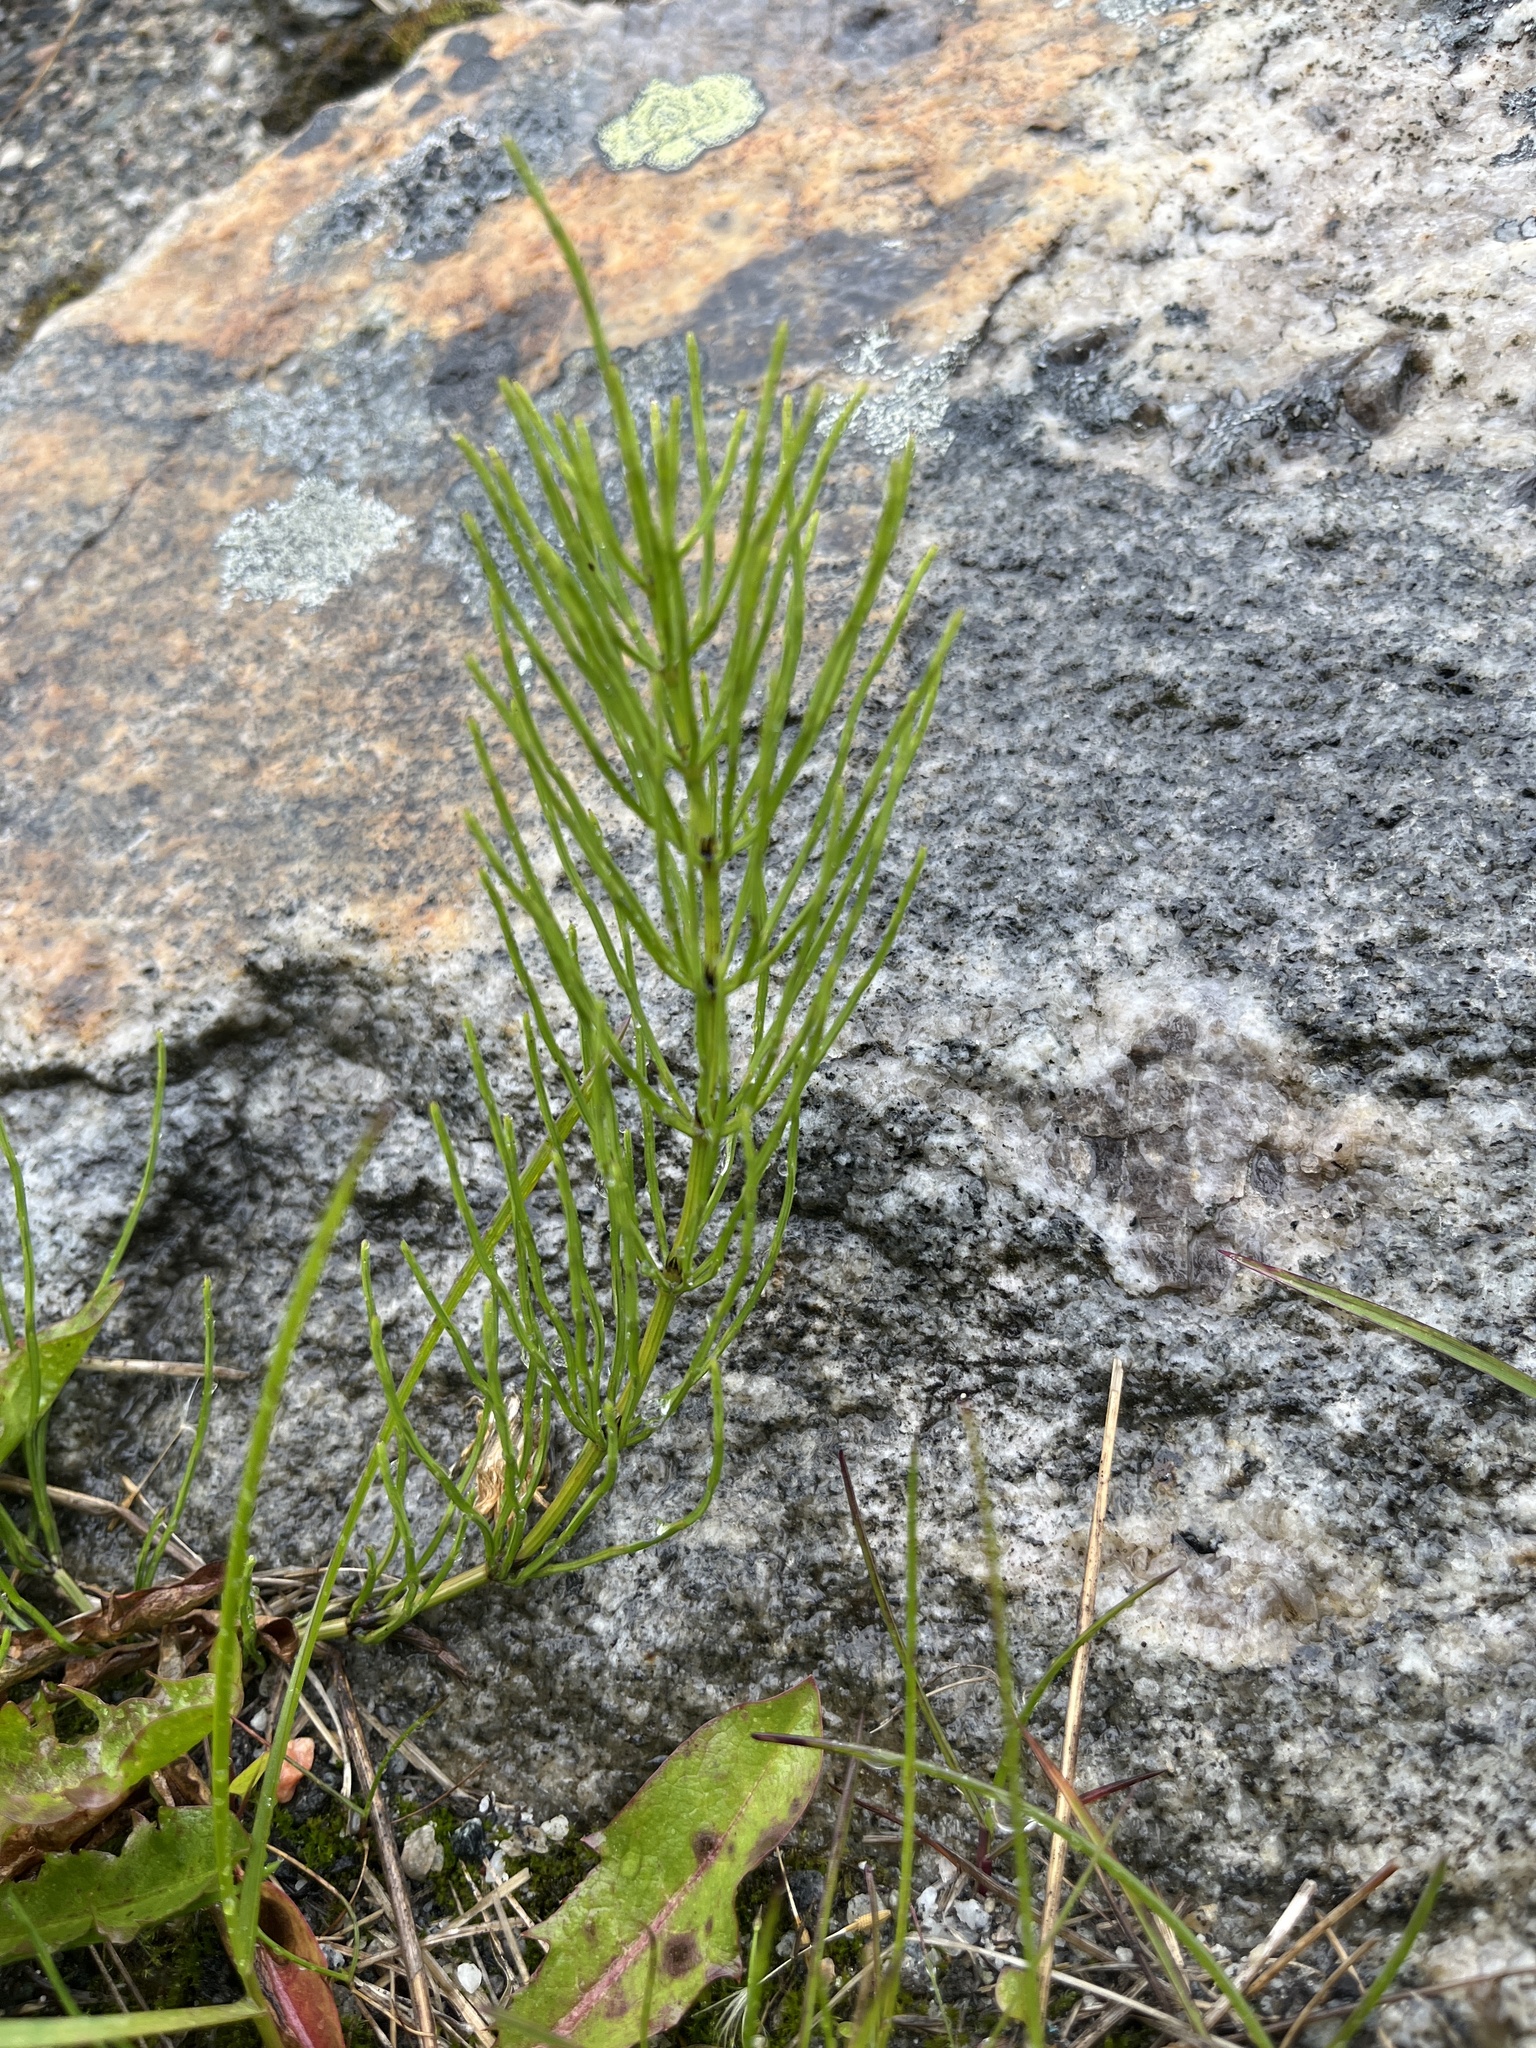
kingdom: Plantae
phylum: Tracheophyta
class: Polypodiopsida
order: Equisetales
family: Equisetaceae
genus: Equisetum
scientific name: Equisetum arvense
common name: Field horsetail
